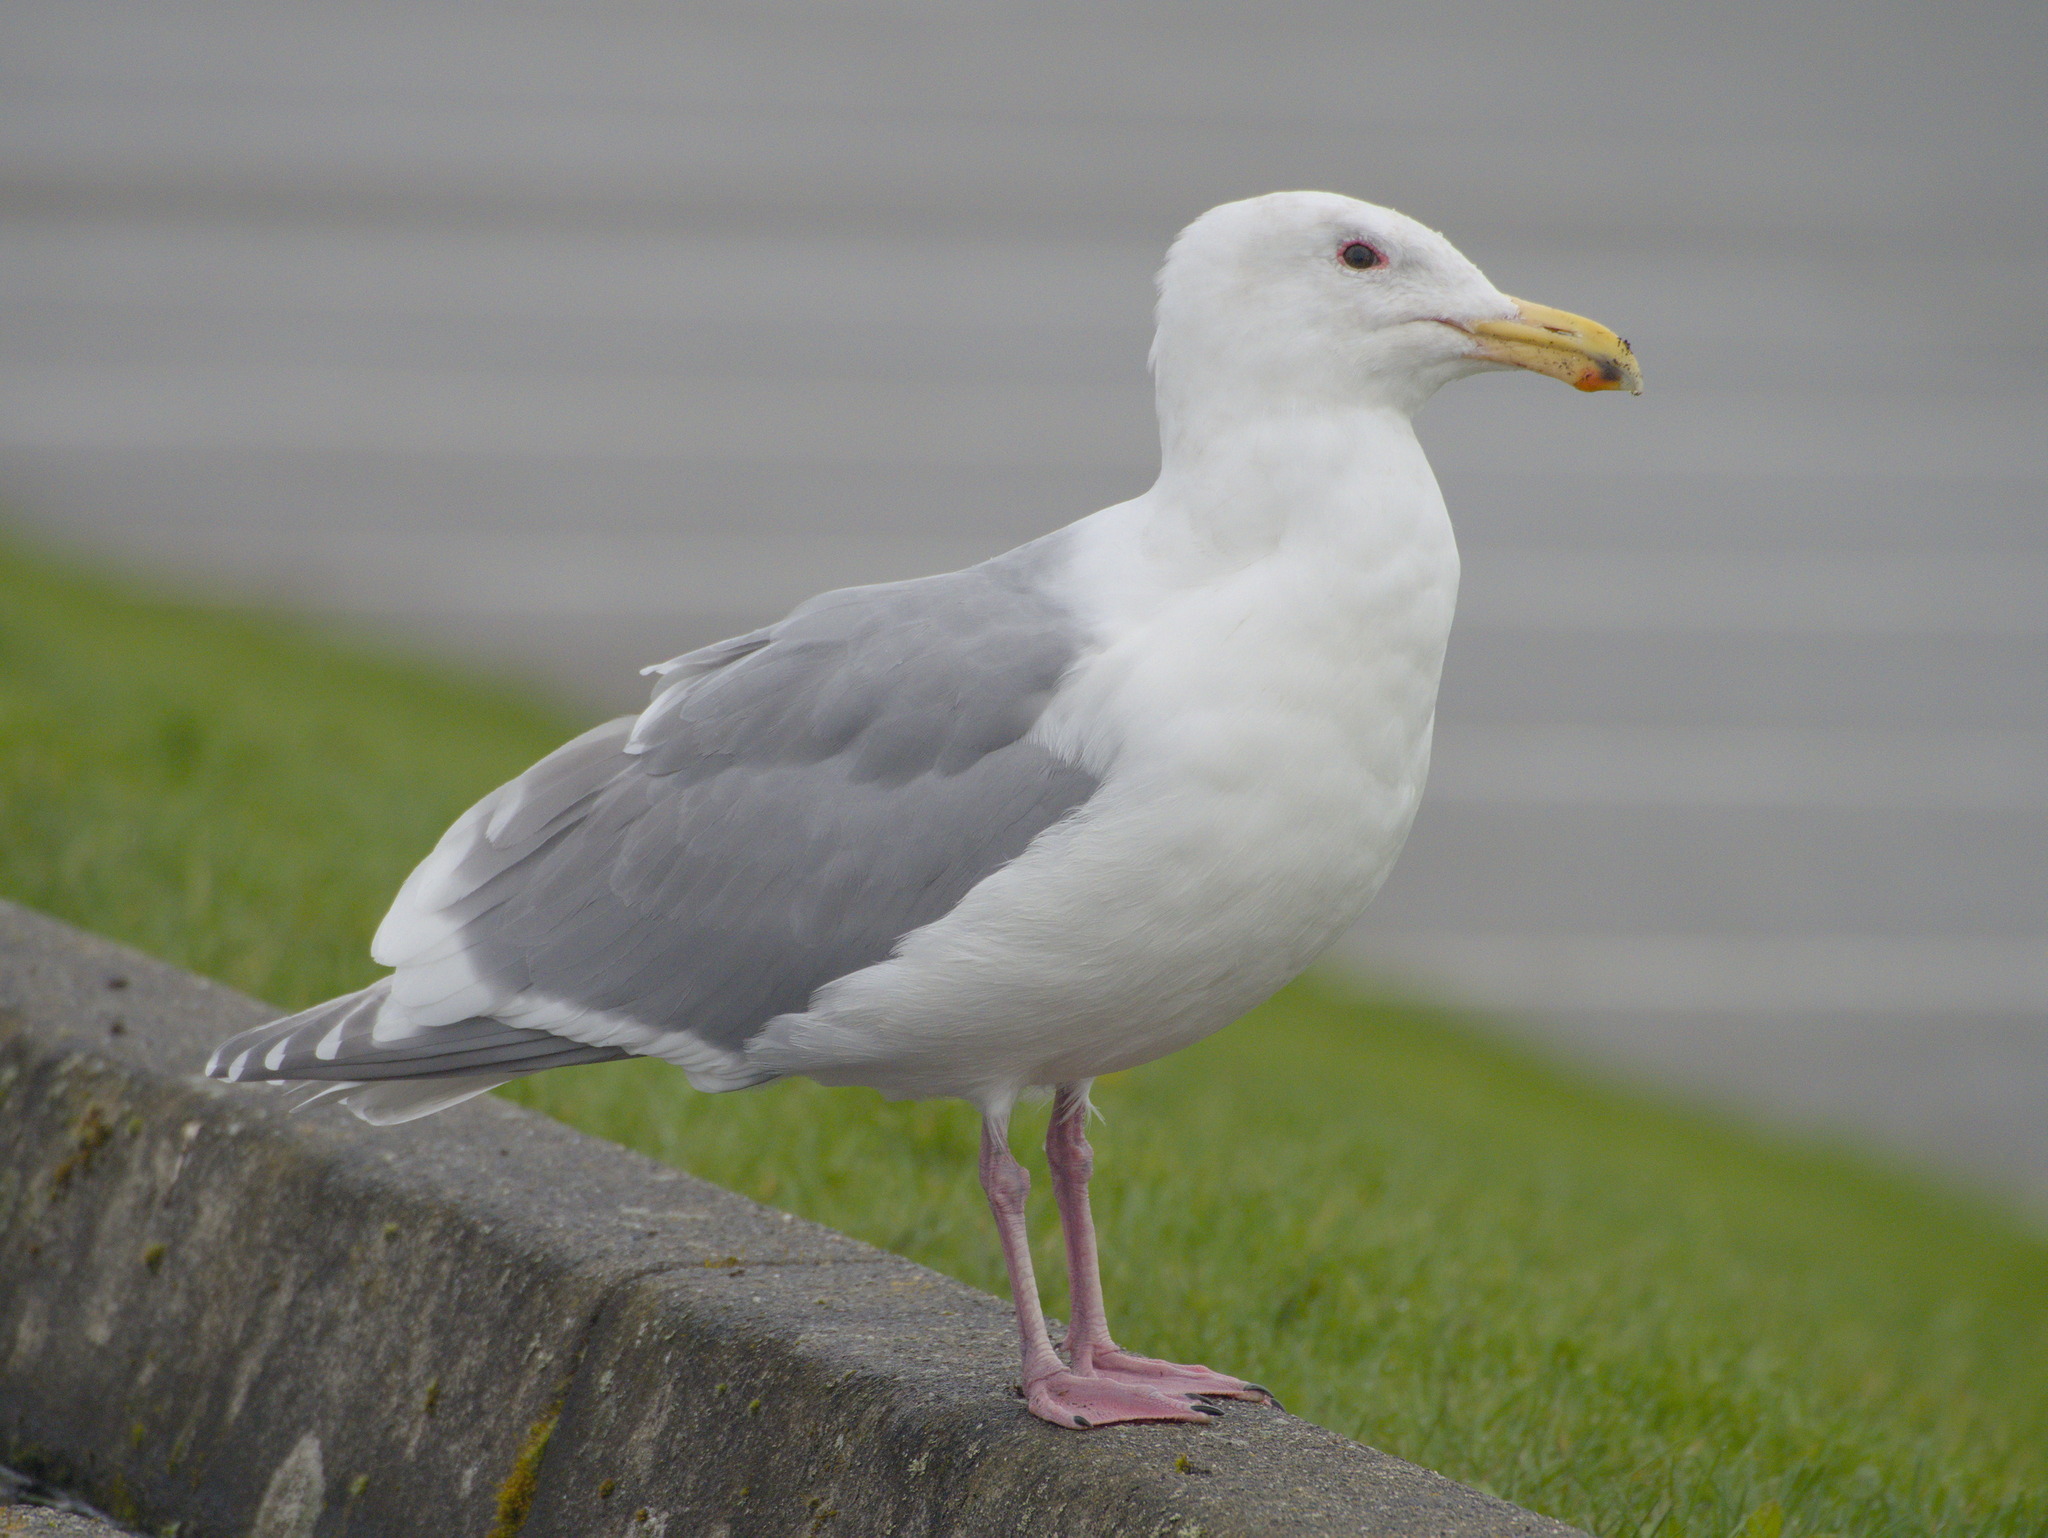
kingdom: Animalia
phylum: Chordata
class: Aves
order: Charadriiformes
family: Laridae
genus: Larus
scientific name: Larus glaucescens
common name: Glaucous-winged gull
